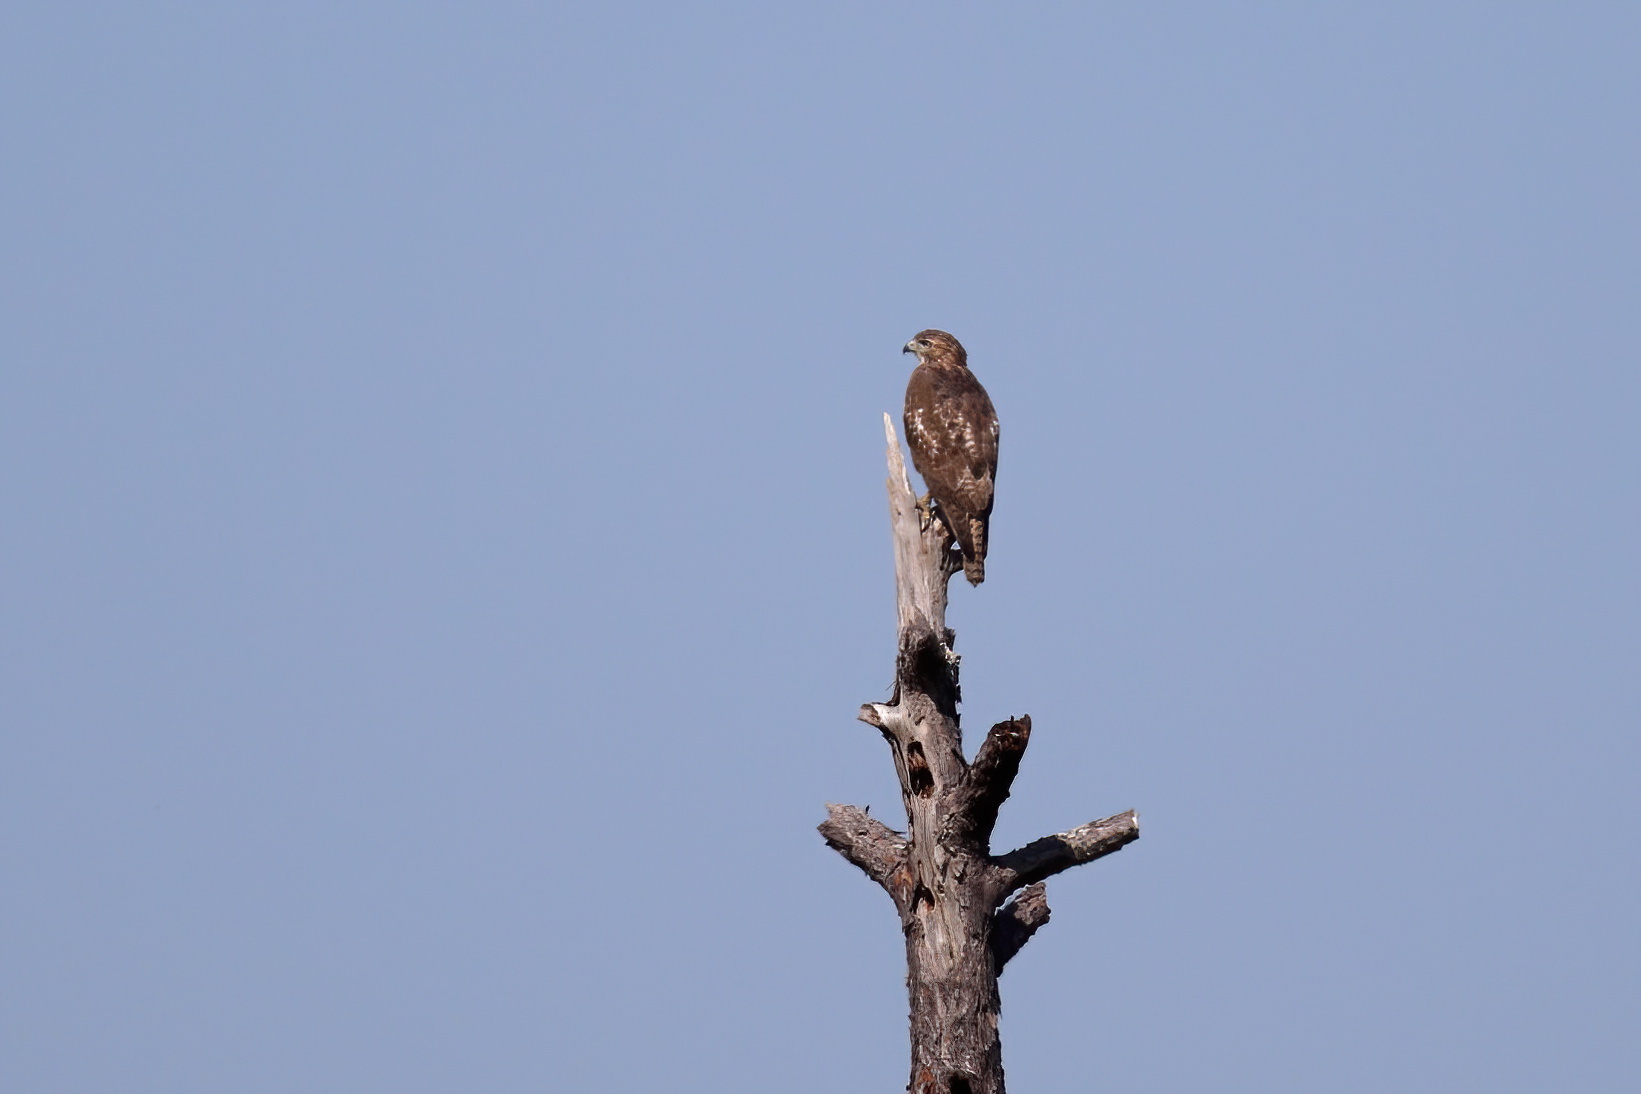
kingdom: Animalia
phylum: Chordata
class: Aves
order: Accipitriformes
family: Accipitridae
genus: Buteo
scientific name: Buteo jamaicensis
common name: Red-tailed hawk
